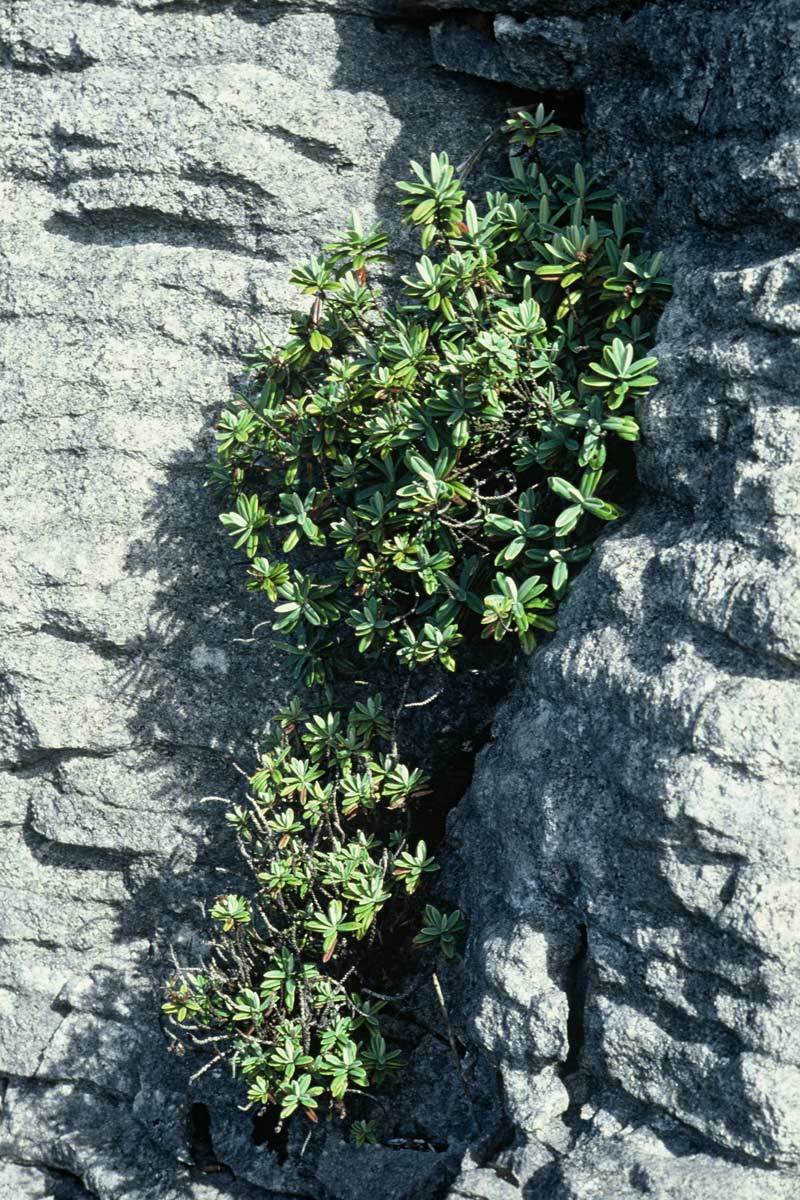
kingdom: Plantae
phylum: Tracheophyta
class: Magnoliopsida
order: Lamiales
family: Plantaginaceae
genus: Veronica
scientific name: Veronica scopulorum
